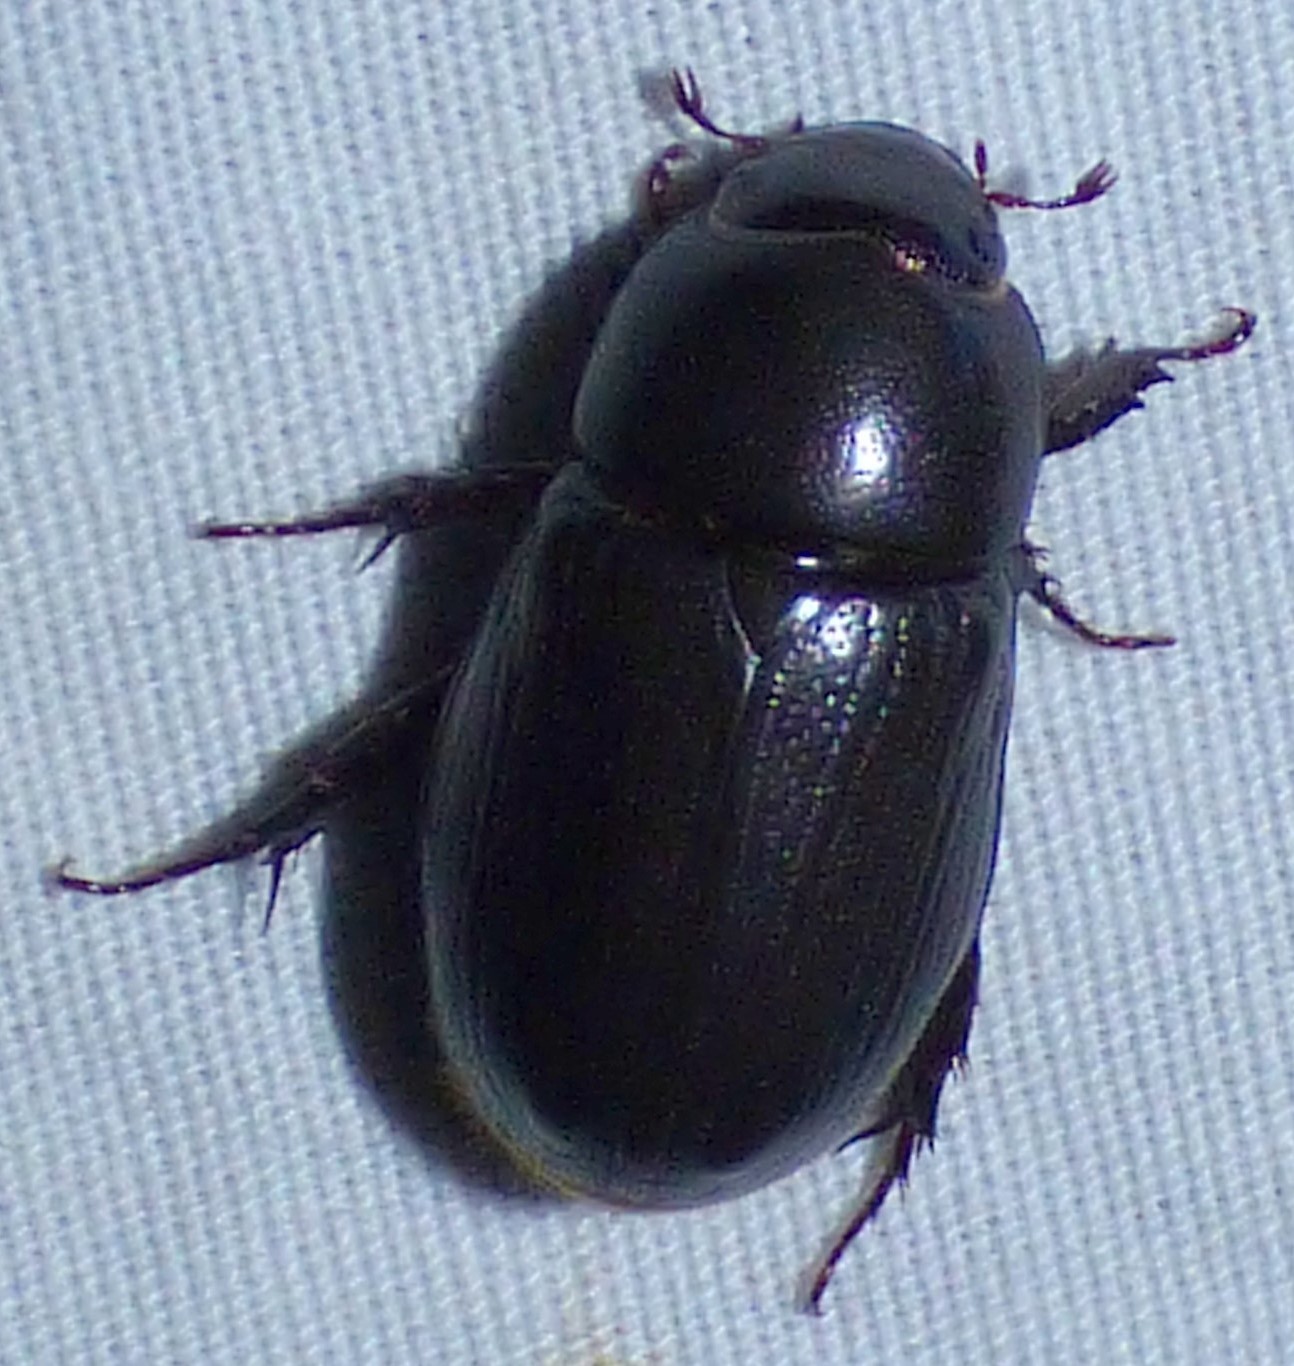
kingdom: Animalia
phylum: Arthropoda
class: Insecta
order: Coleoptera
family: Scarabaeidae
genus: Dyscinetus
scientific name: Dyscinetus morator
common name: Rice beetle
